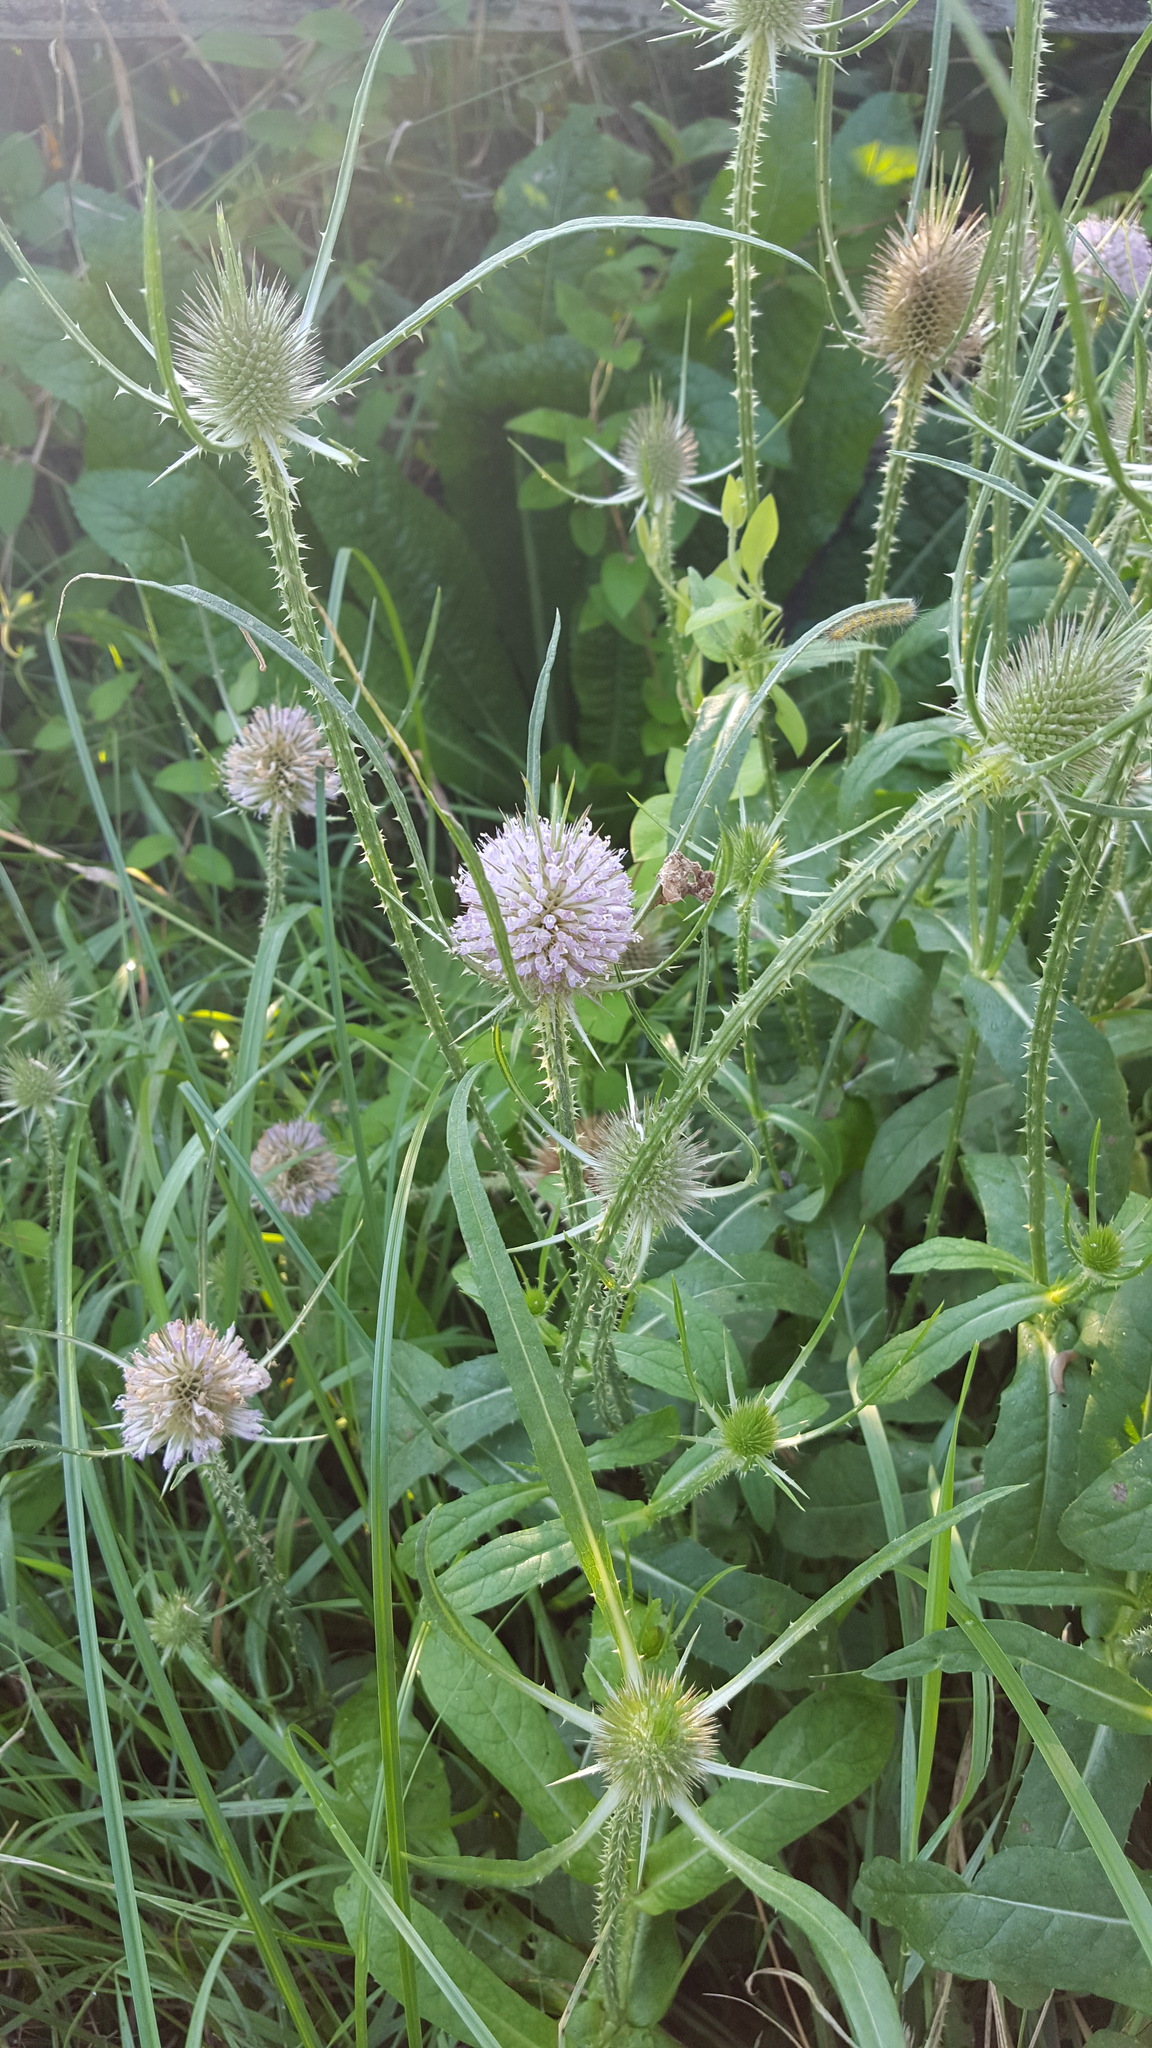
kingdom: Plantae
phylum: Tracheophyta
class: Magnoliopsida
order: Dipsacales
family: Caprifoliaceae
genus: Dipsacus
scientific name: Dipsacus fullonum
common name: Teasel
